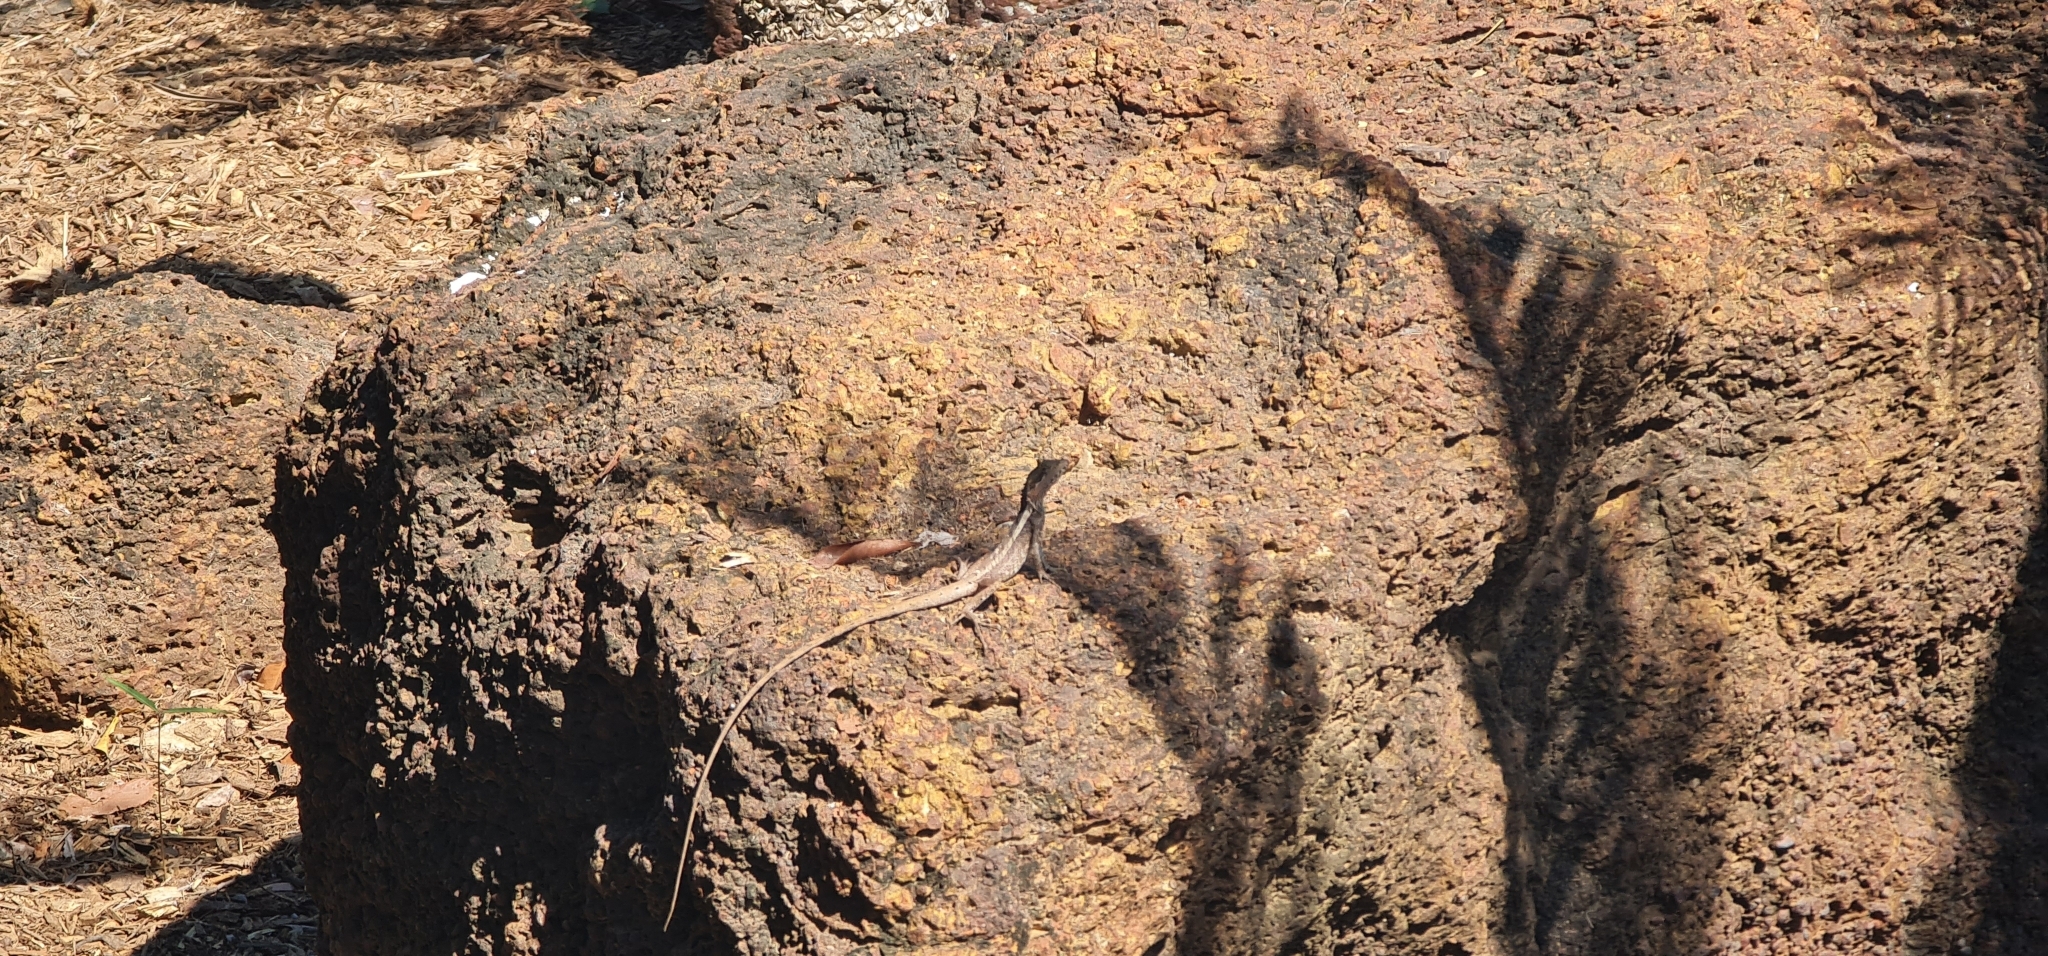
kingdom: Animalia
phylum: Chordata
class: Squamata
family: Agamidae
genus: Tropicagama
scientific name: Tropicagama temporalis
